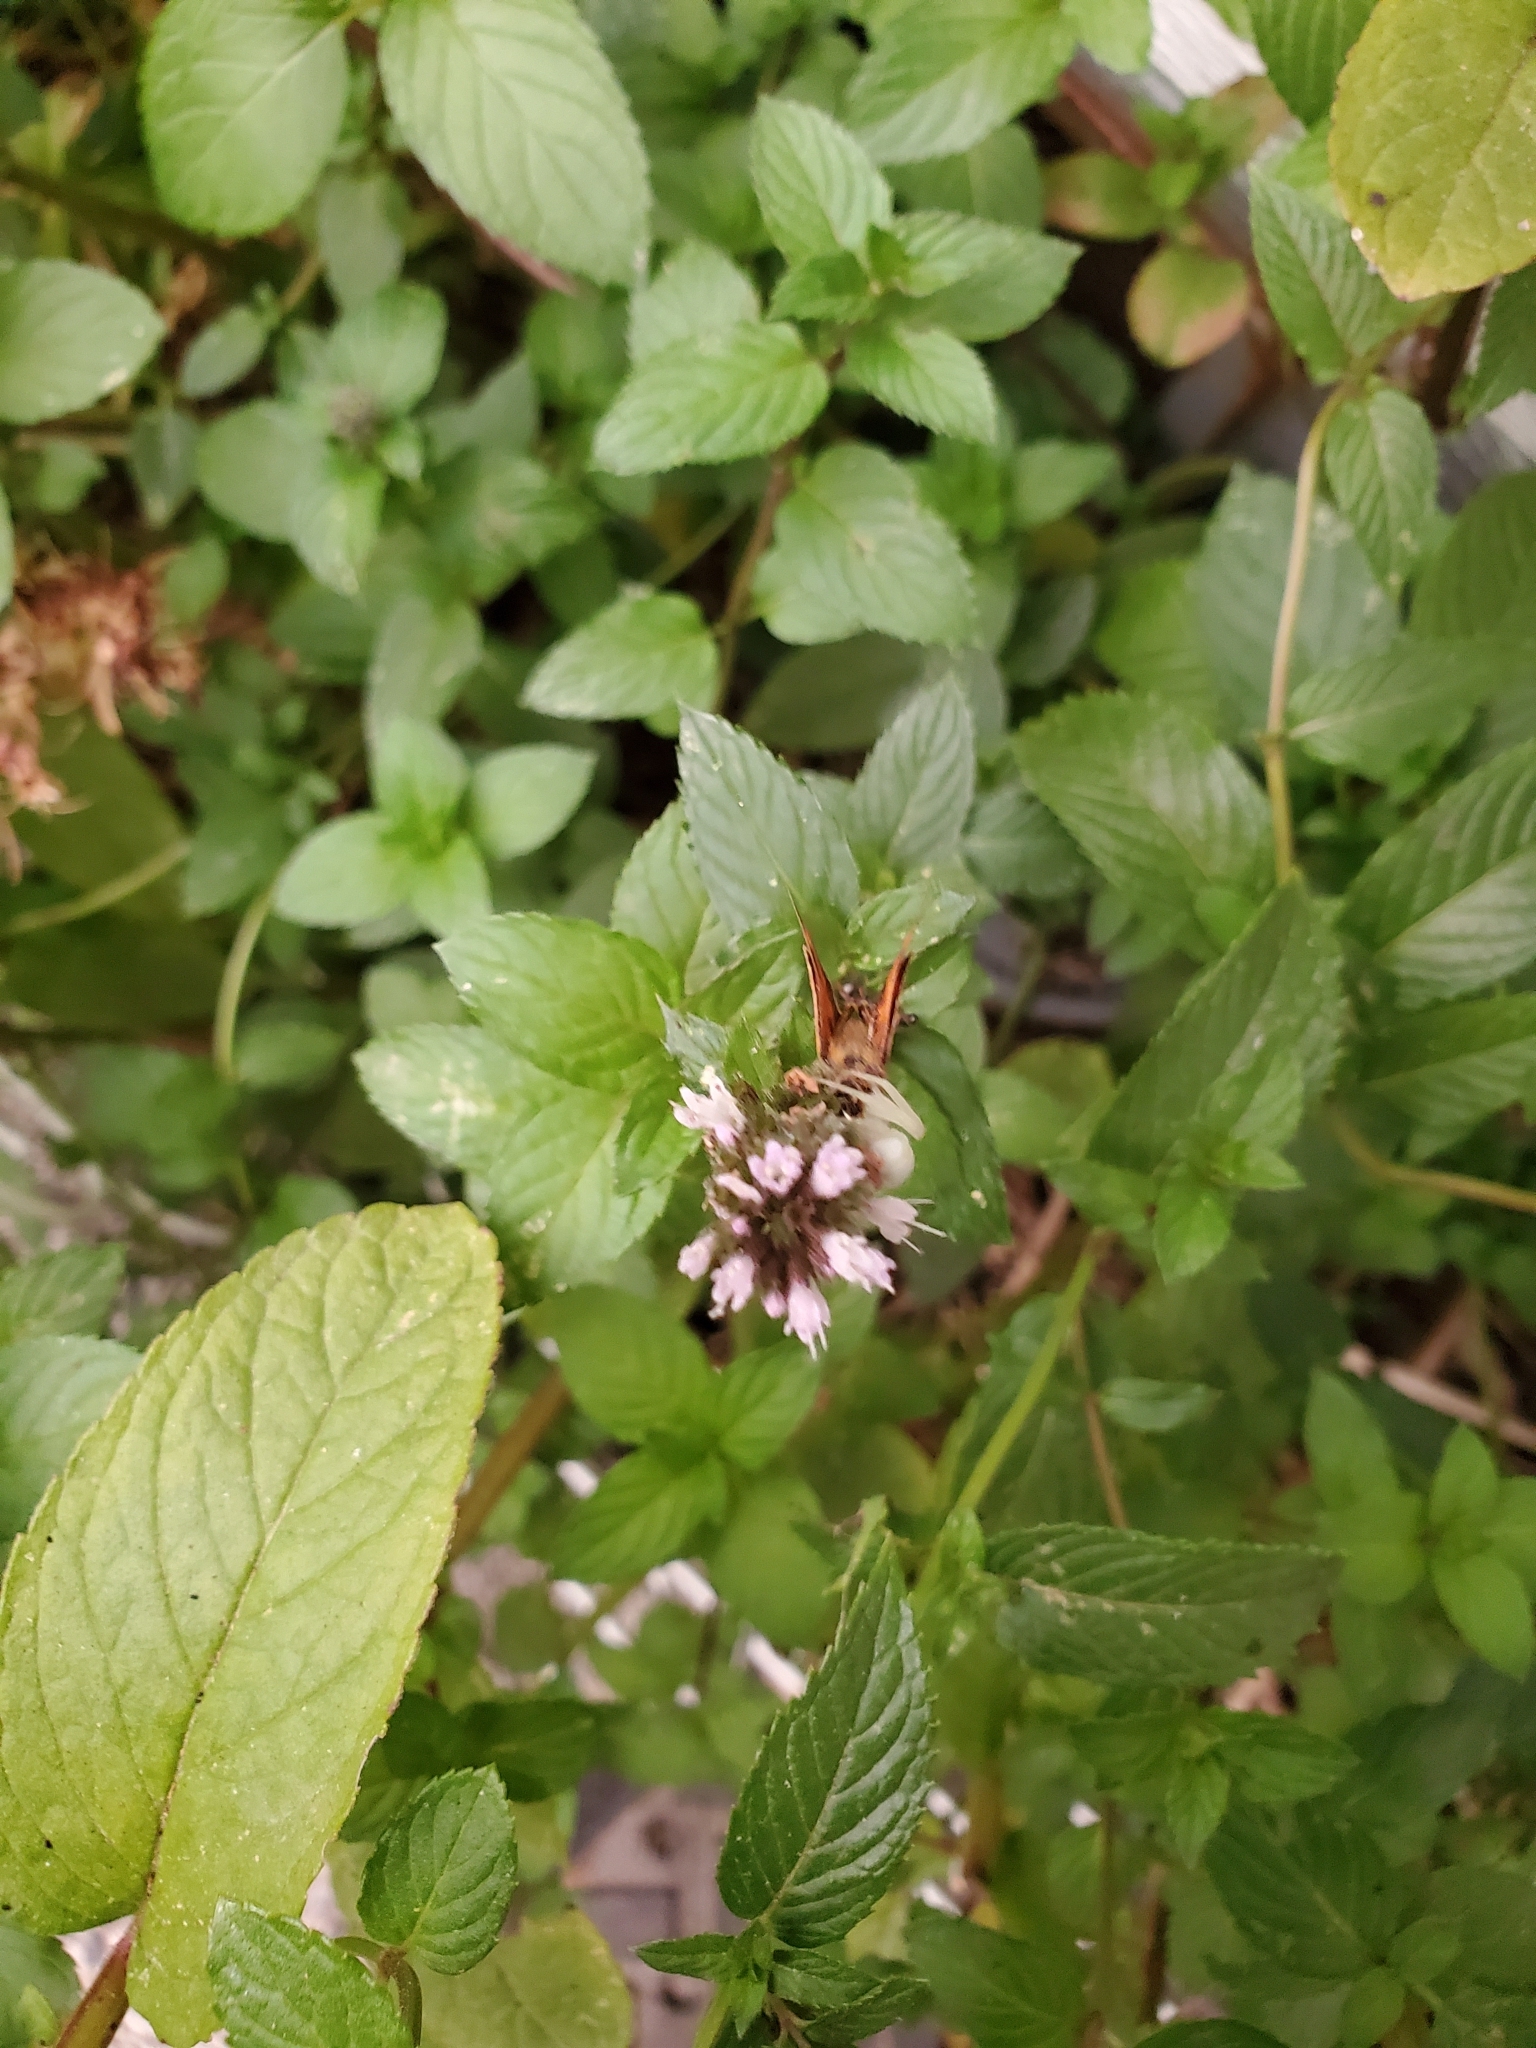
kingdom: Animalia
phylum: Arthropoda
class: Insecta
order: Lepidoptera
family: Hesperiidae
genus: Ochlodes
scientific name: Ochlodes sylvanoides
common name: Woodland skipper
